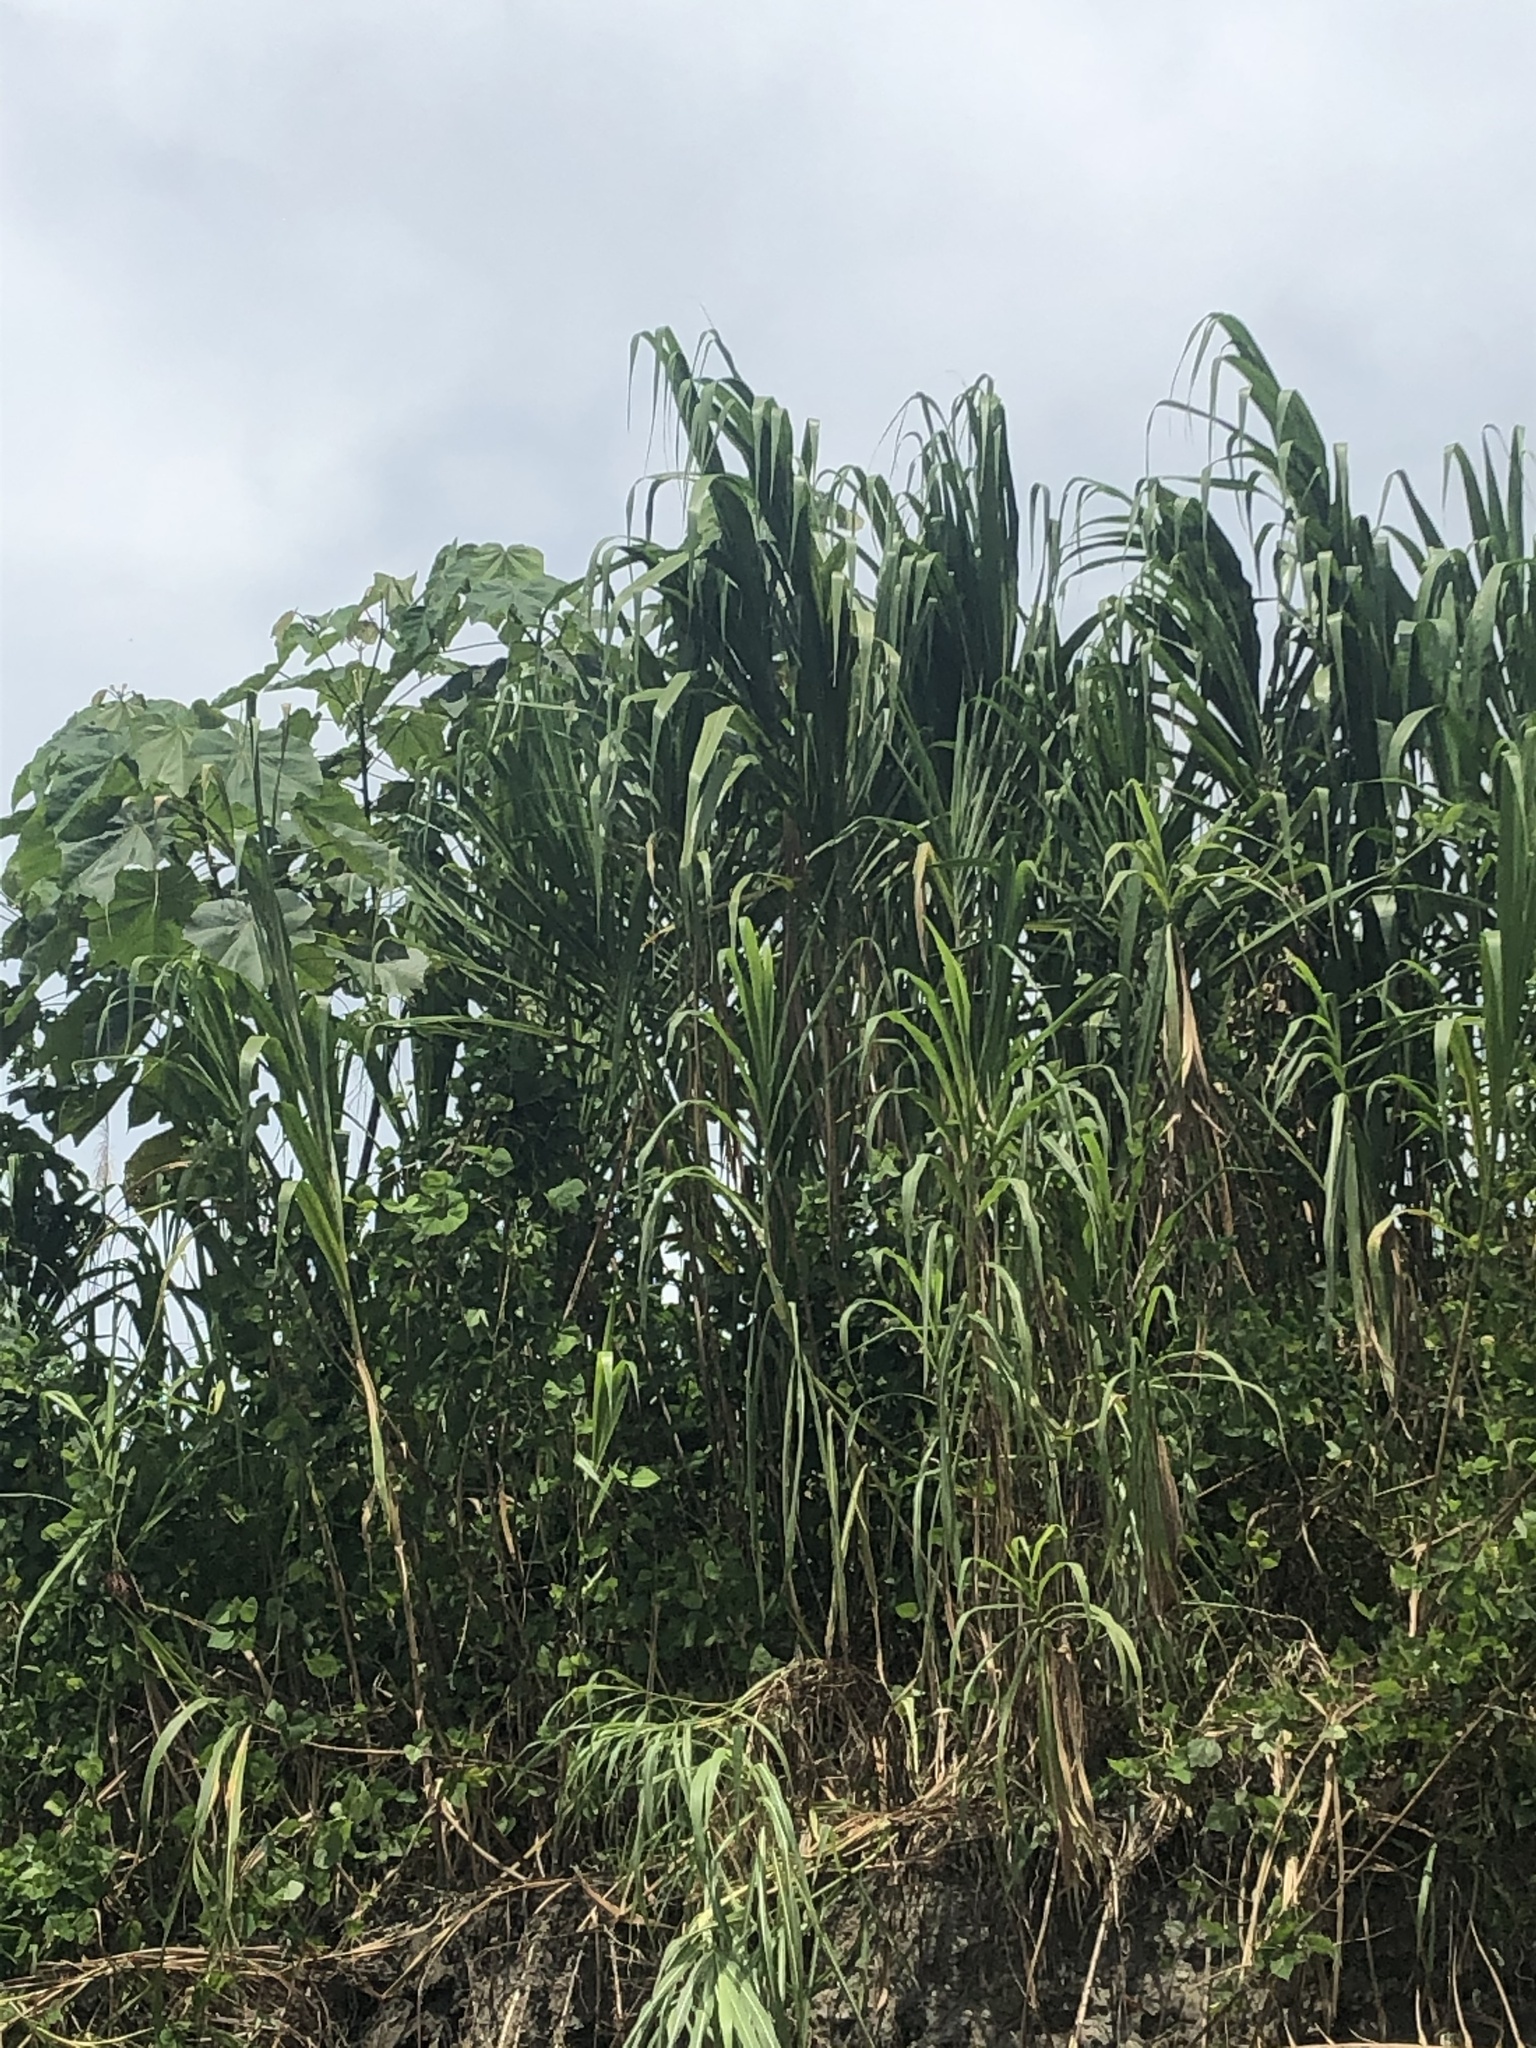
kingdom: Plantae
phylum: Tracheophyta
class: Liliopsida
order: Poales
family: Poaceae
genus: Gynerium
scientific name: Gynerium sagittatum
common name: Wild cane
